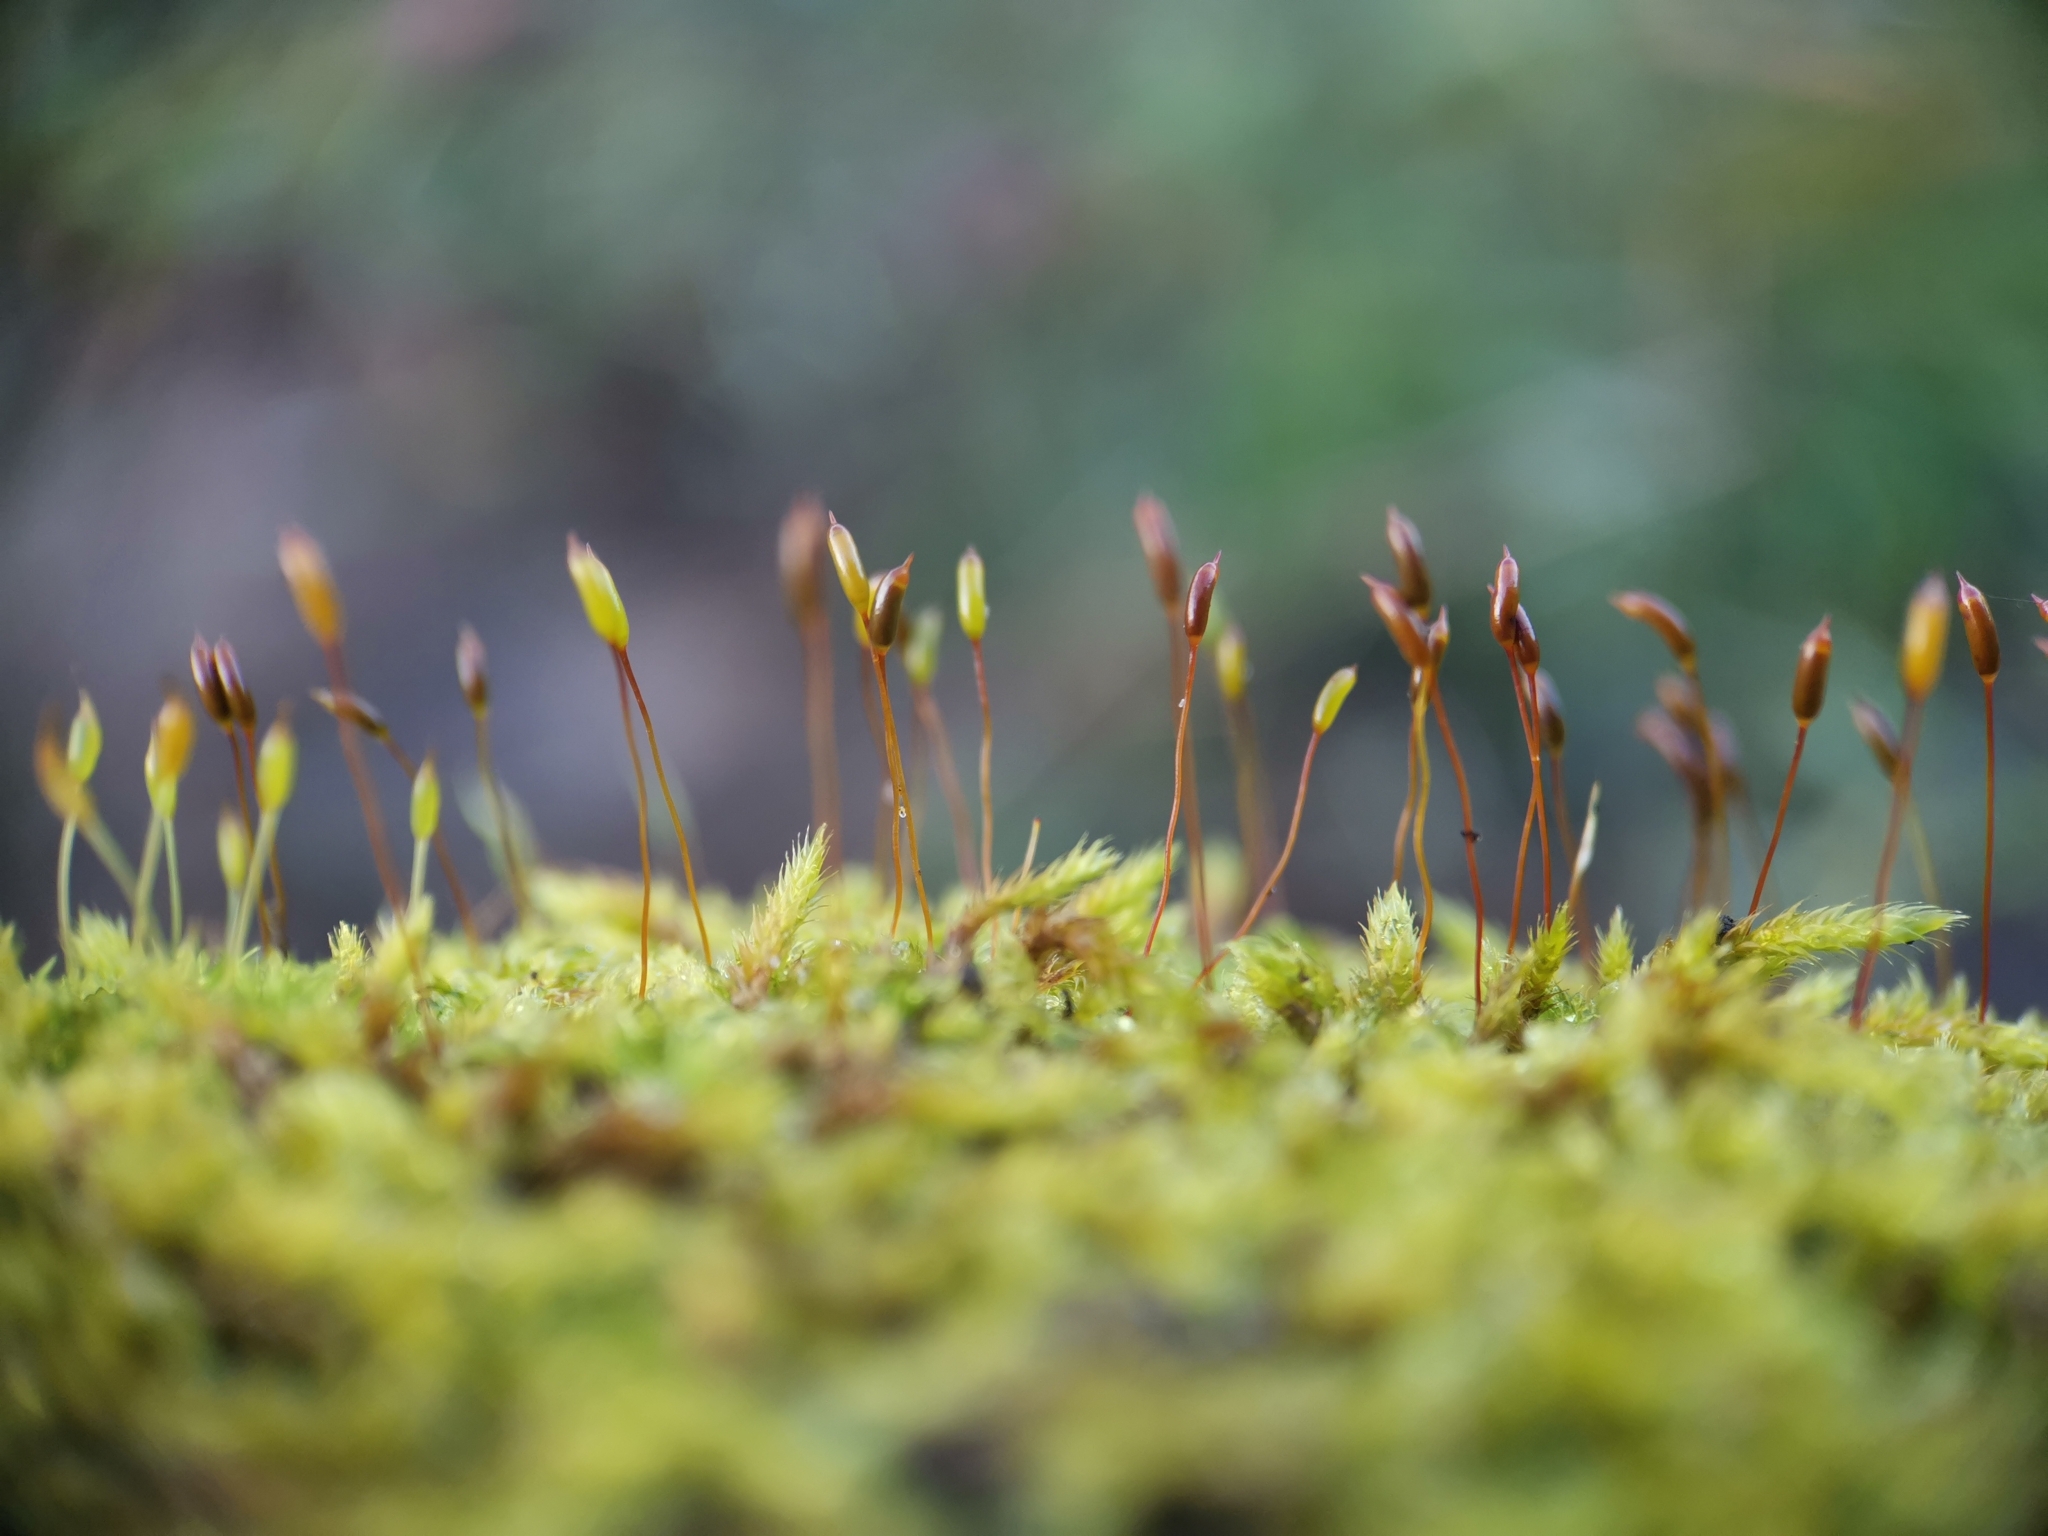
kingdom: Plantae
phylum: Bryophyta
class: Bryopsida
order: Hypnales
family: Hypnaceae
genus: Hypnum
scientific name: Hypnum cupressiforme
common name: Cypress-leaved plait-moss
